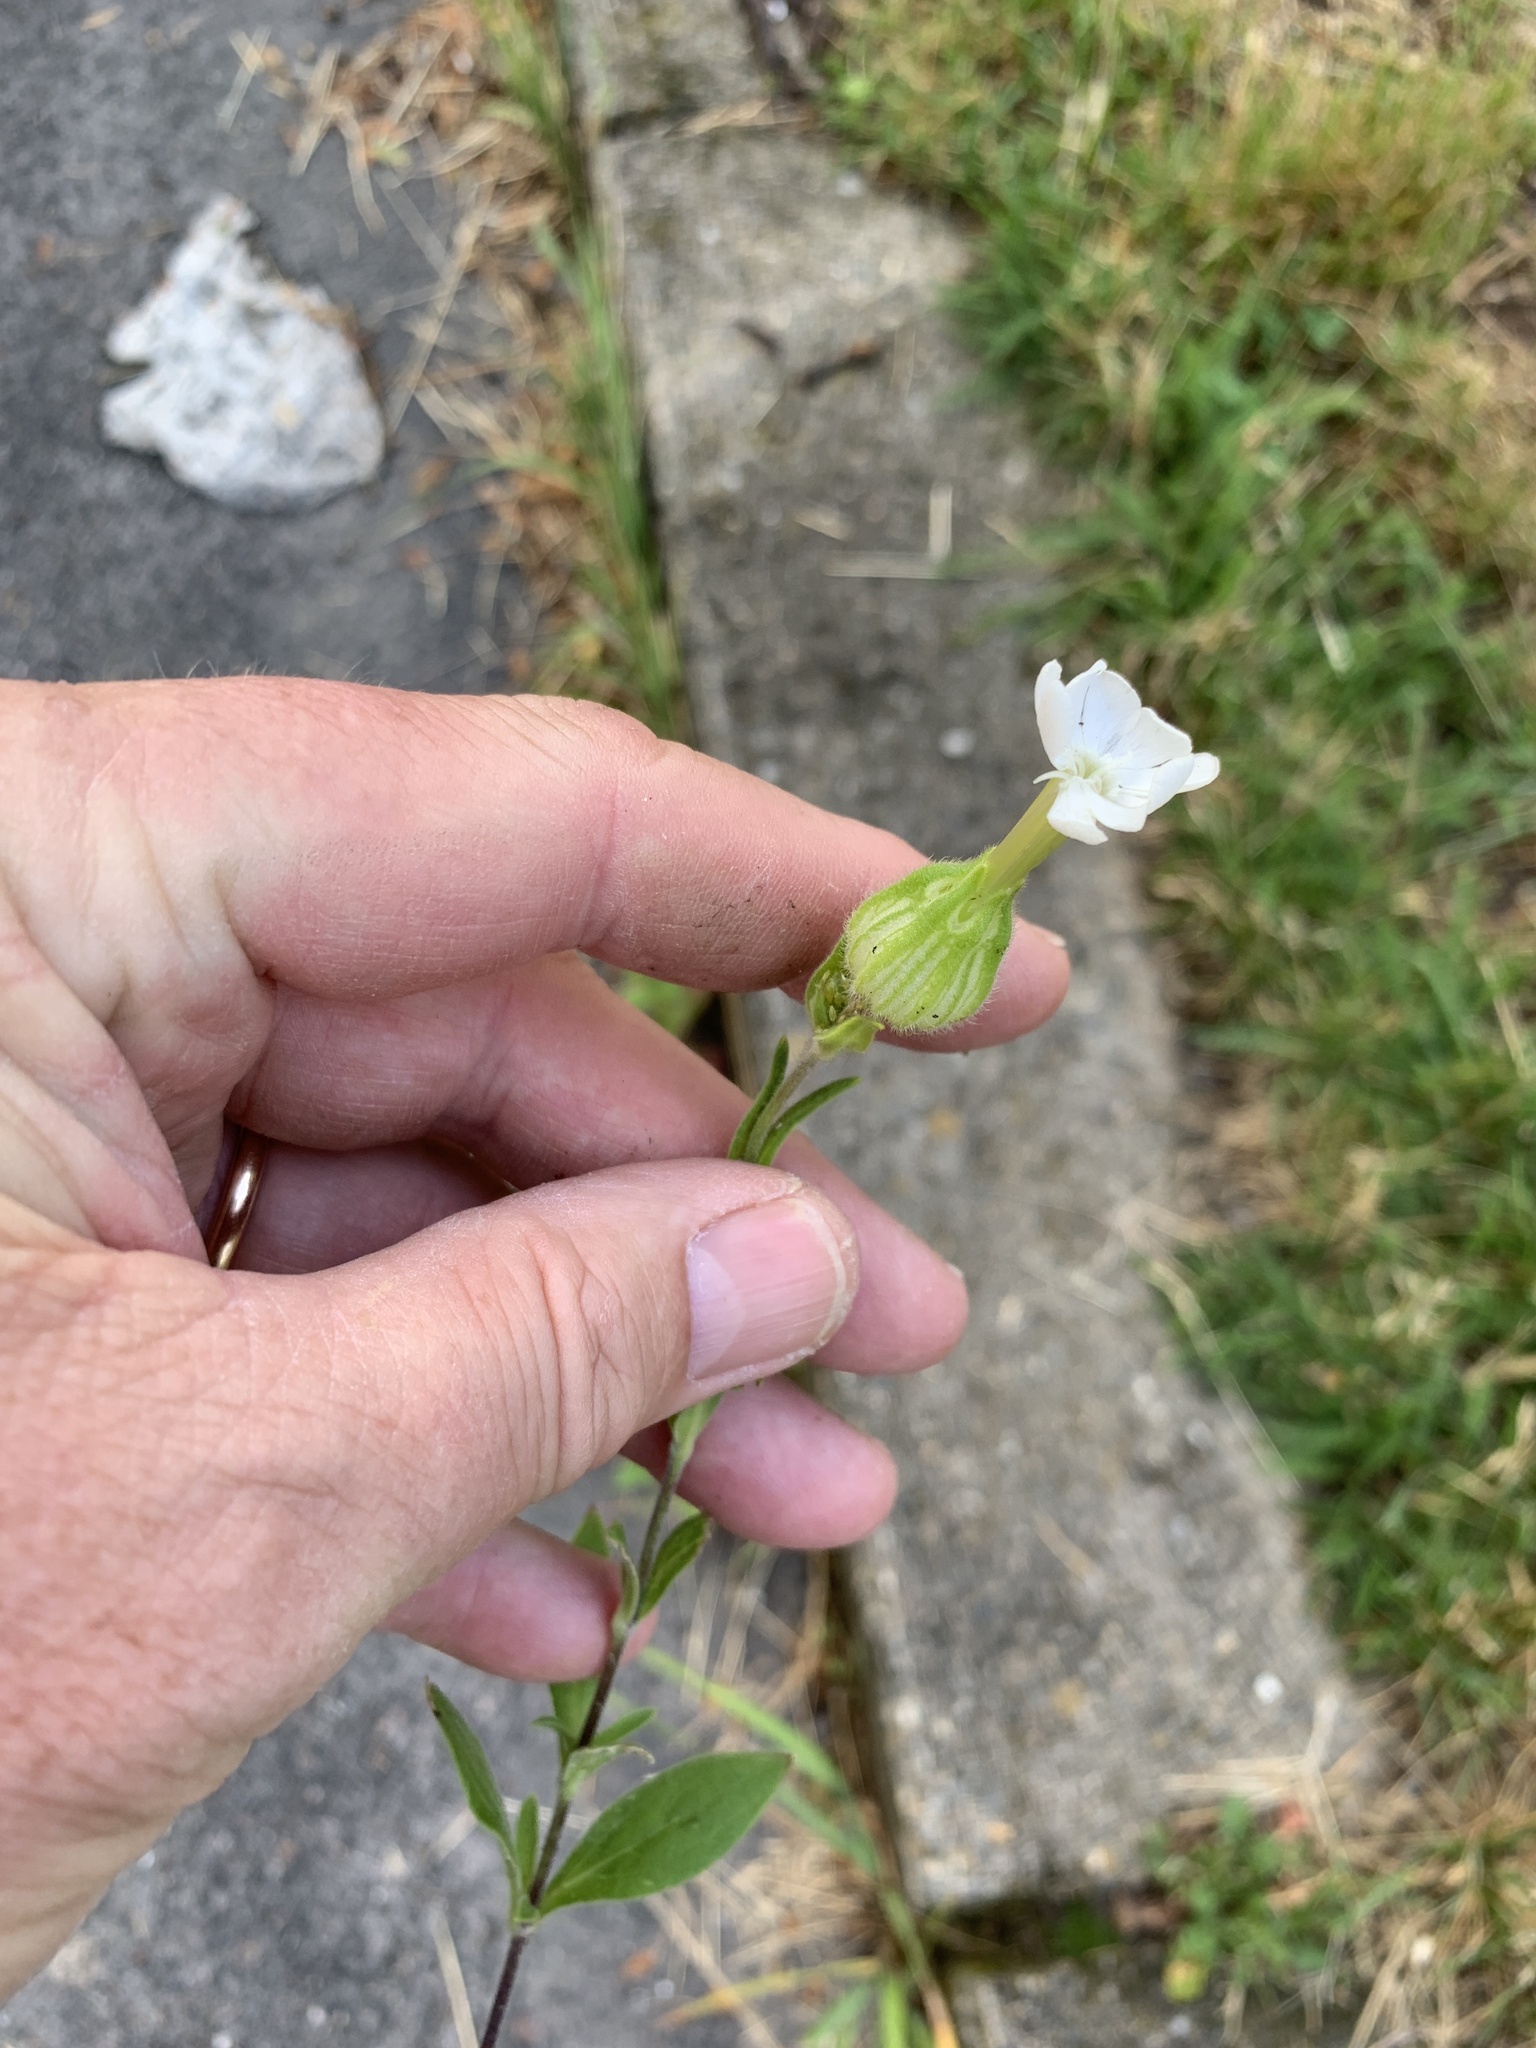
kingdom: Plantae
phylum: Tracheophyta
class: Magnoliopsida
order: Caryophyllales
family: Caryophyllaceae
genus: Silene
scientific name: Silene latifolia
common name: White campion
